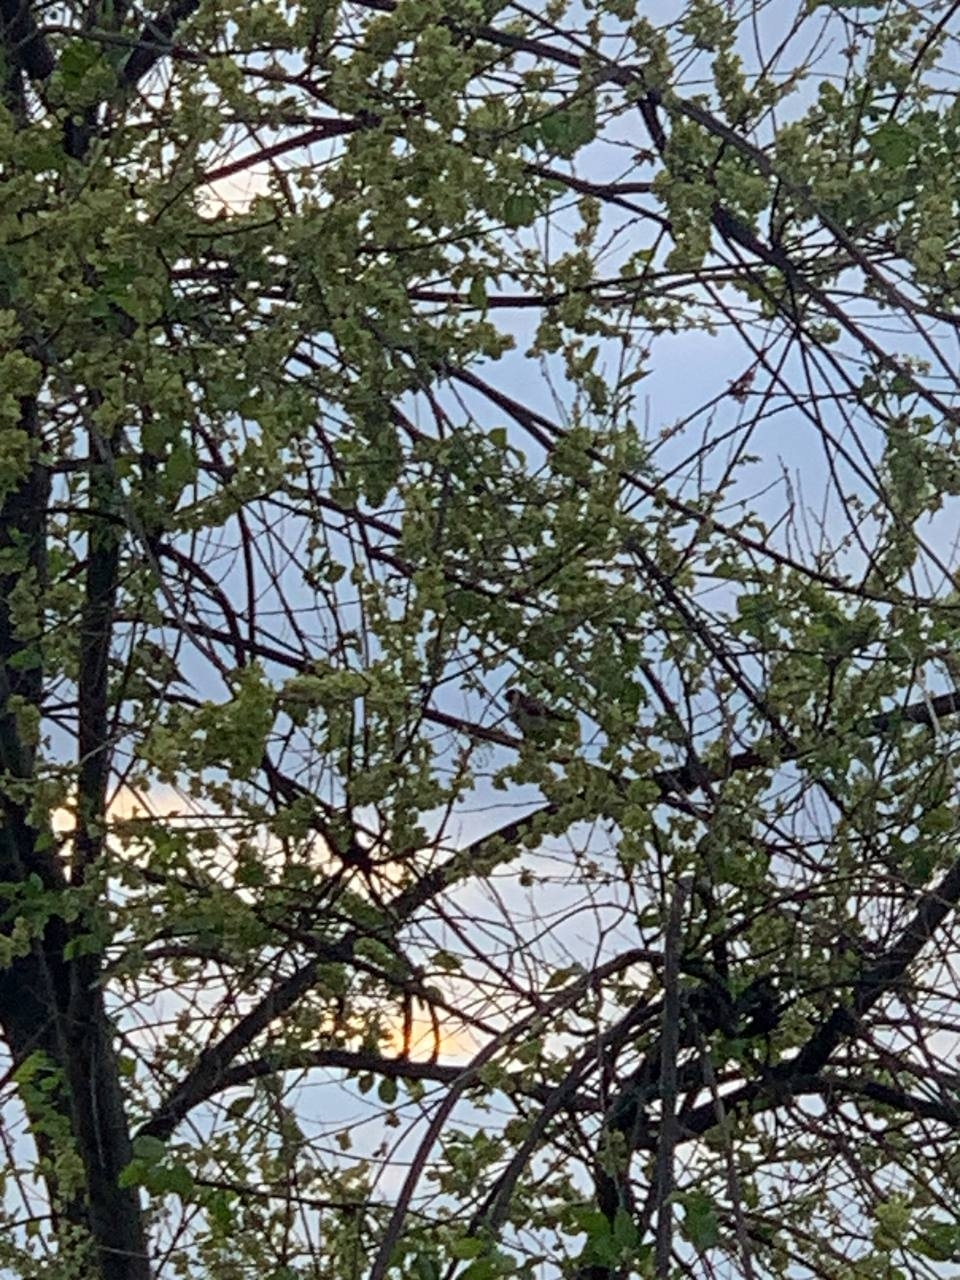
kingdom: Animalia
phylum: Chordata
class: Aves
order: Passeriformes
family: Fringillidae
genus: Carduelis
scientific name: Carduelis carduelis
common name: European goldfinch
